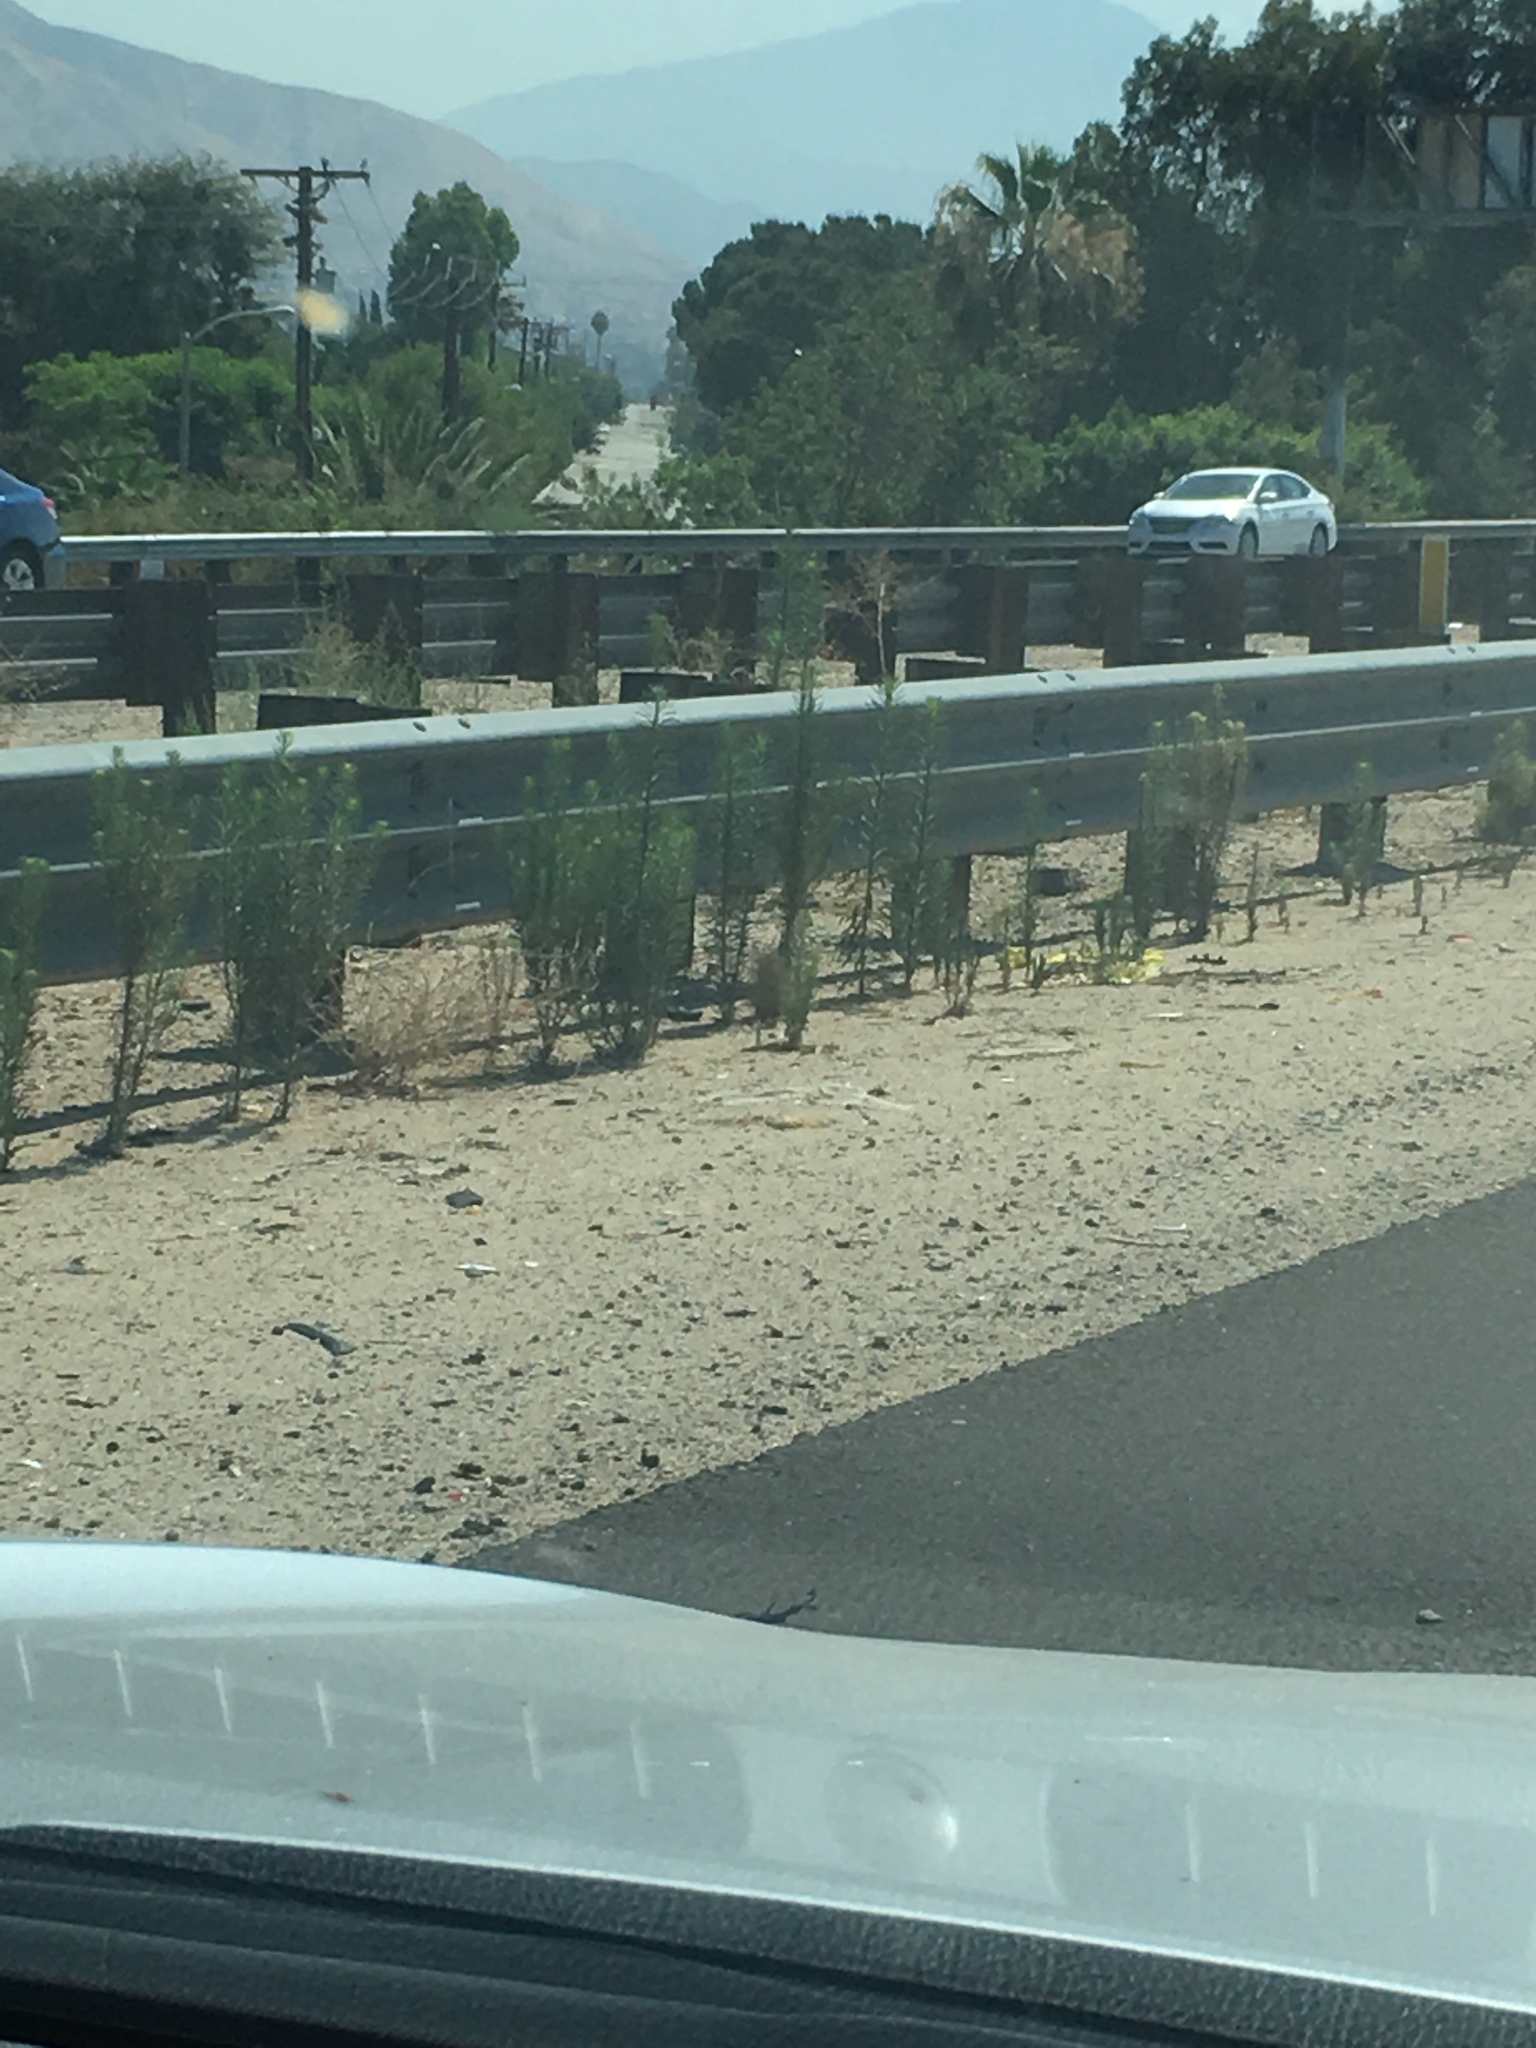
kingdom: Plantae
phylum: Tracheophyta
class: Magnoliopsida
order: Asterales
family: Asteraceae
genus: Erigeron
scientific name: Erigeron canadensis
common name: Canadian fleabane
